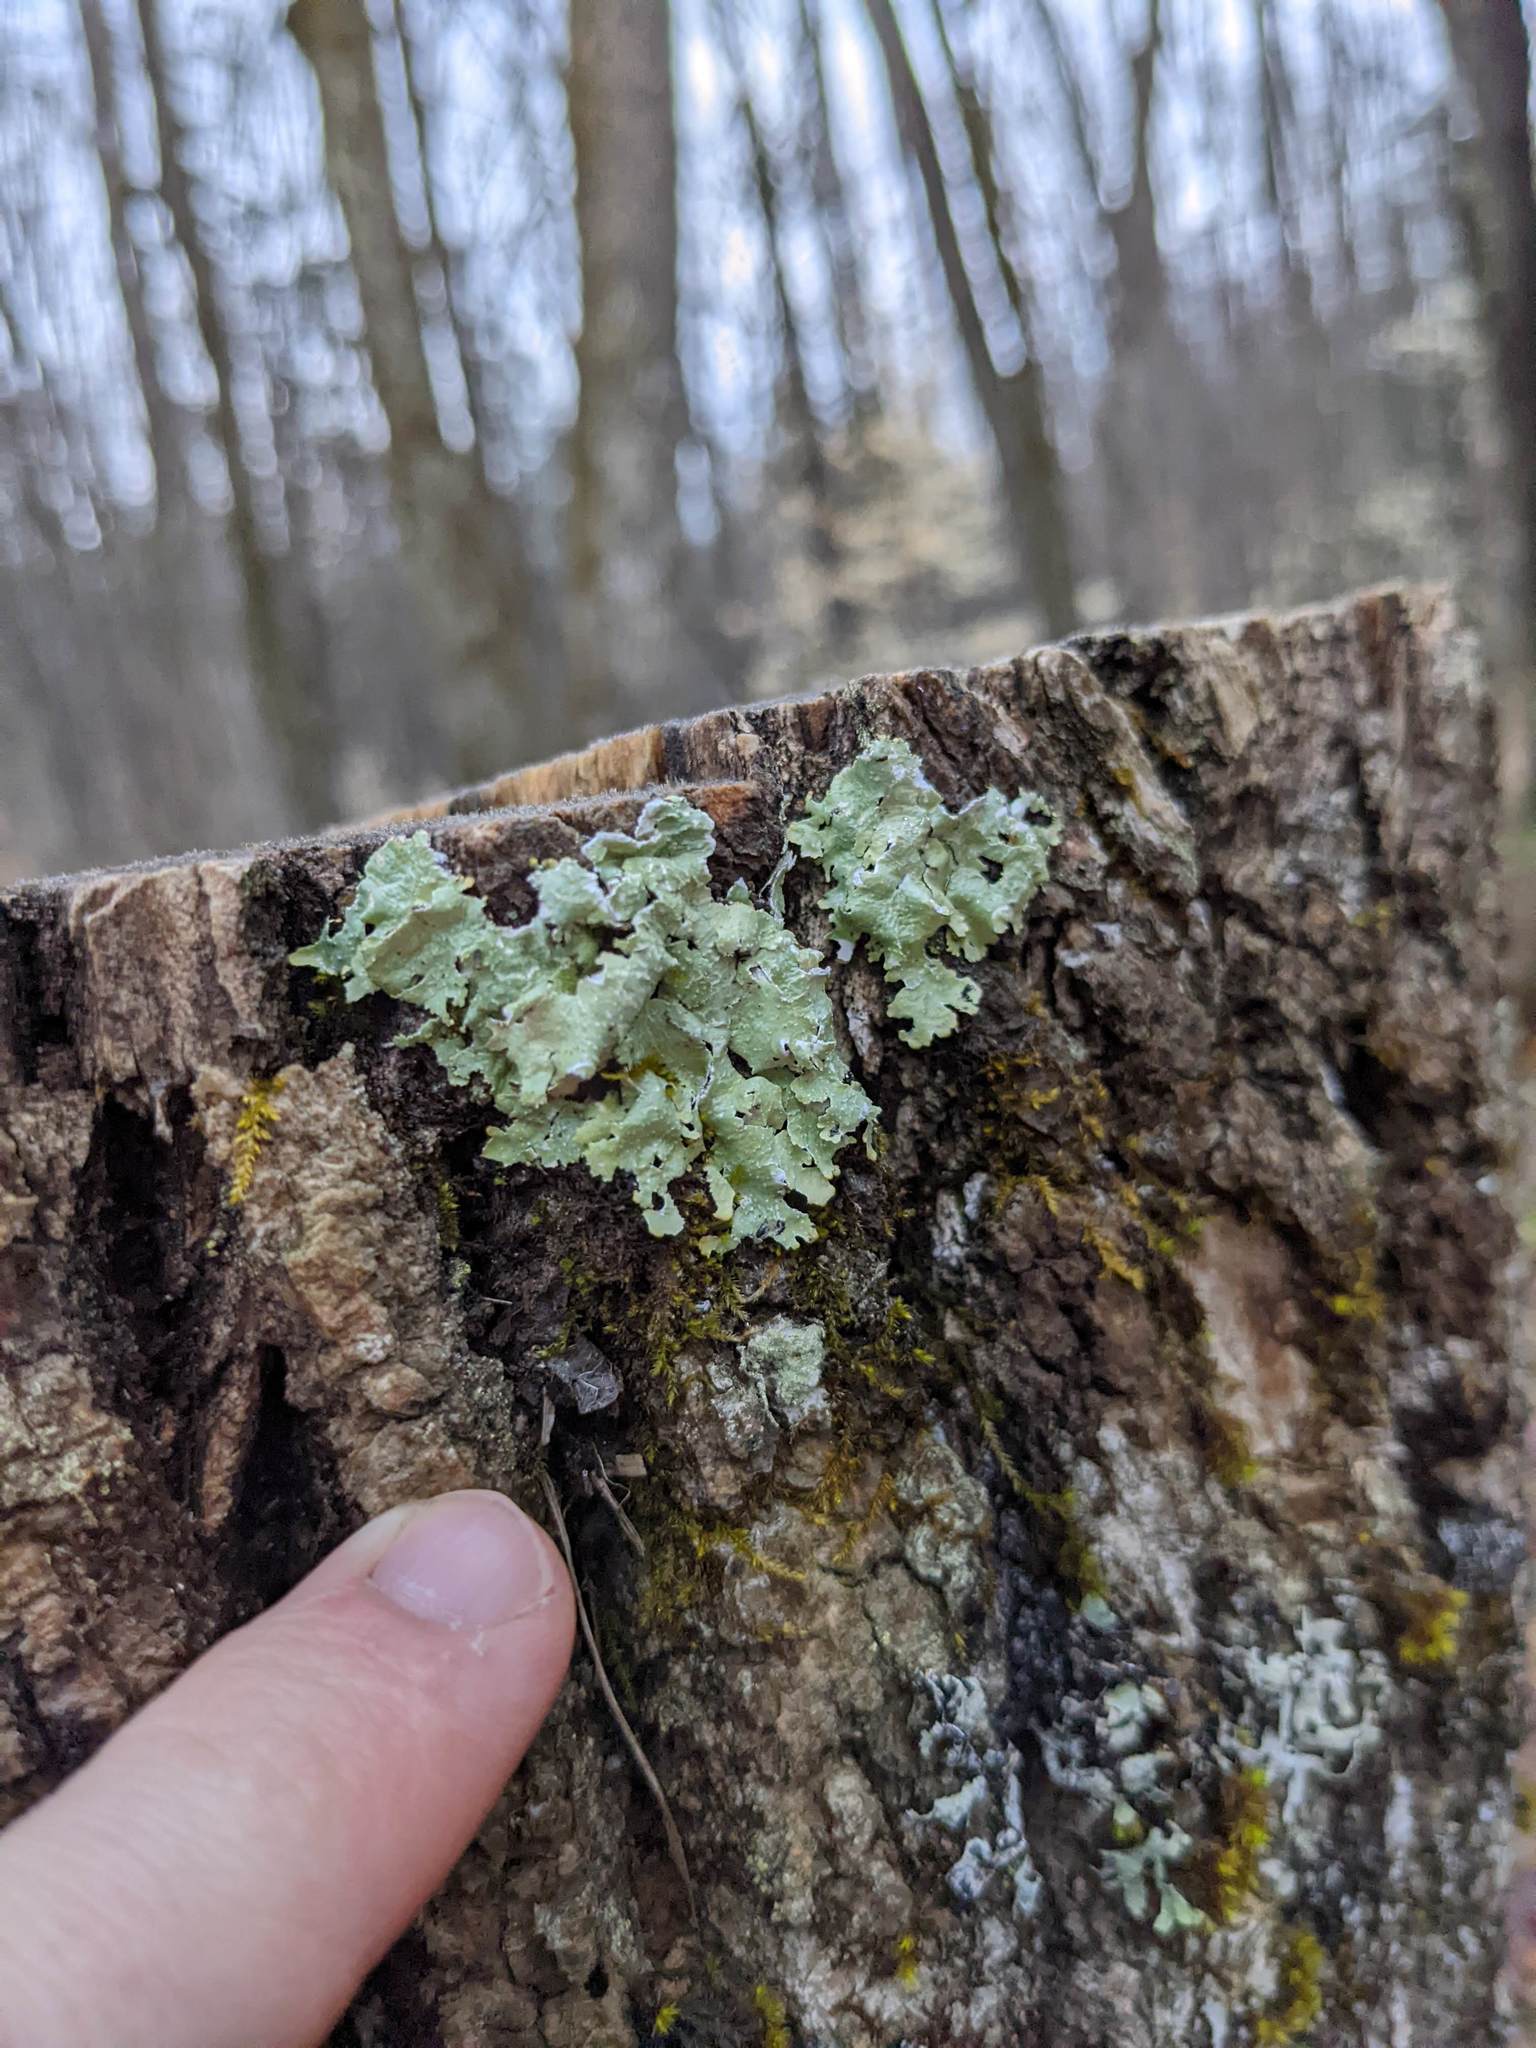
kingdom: Fungi
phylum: Ascomycota
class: Lecanoromycetes
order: Lecanorales
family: Parmeliaceae
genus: Flavoparmelia
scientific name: Flavoparmelia caperata
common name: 40-mile per hour lichen
